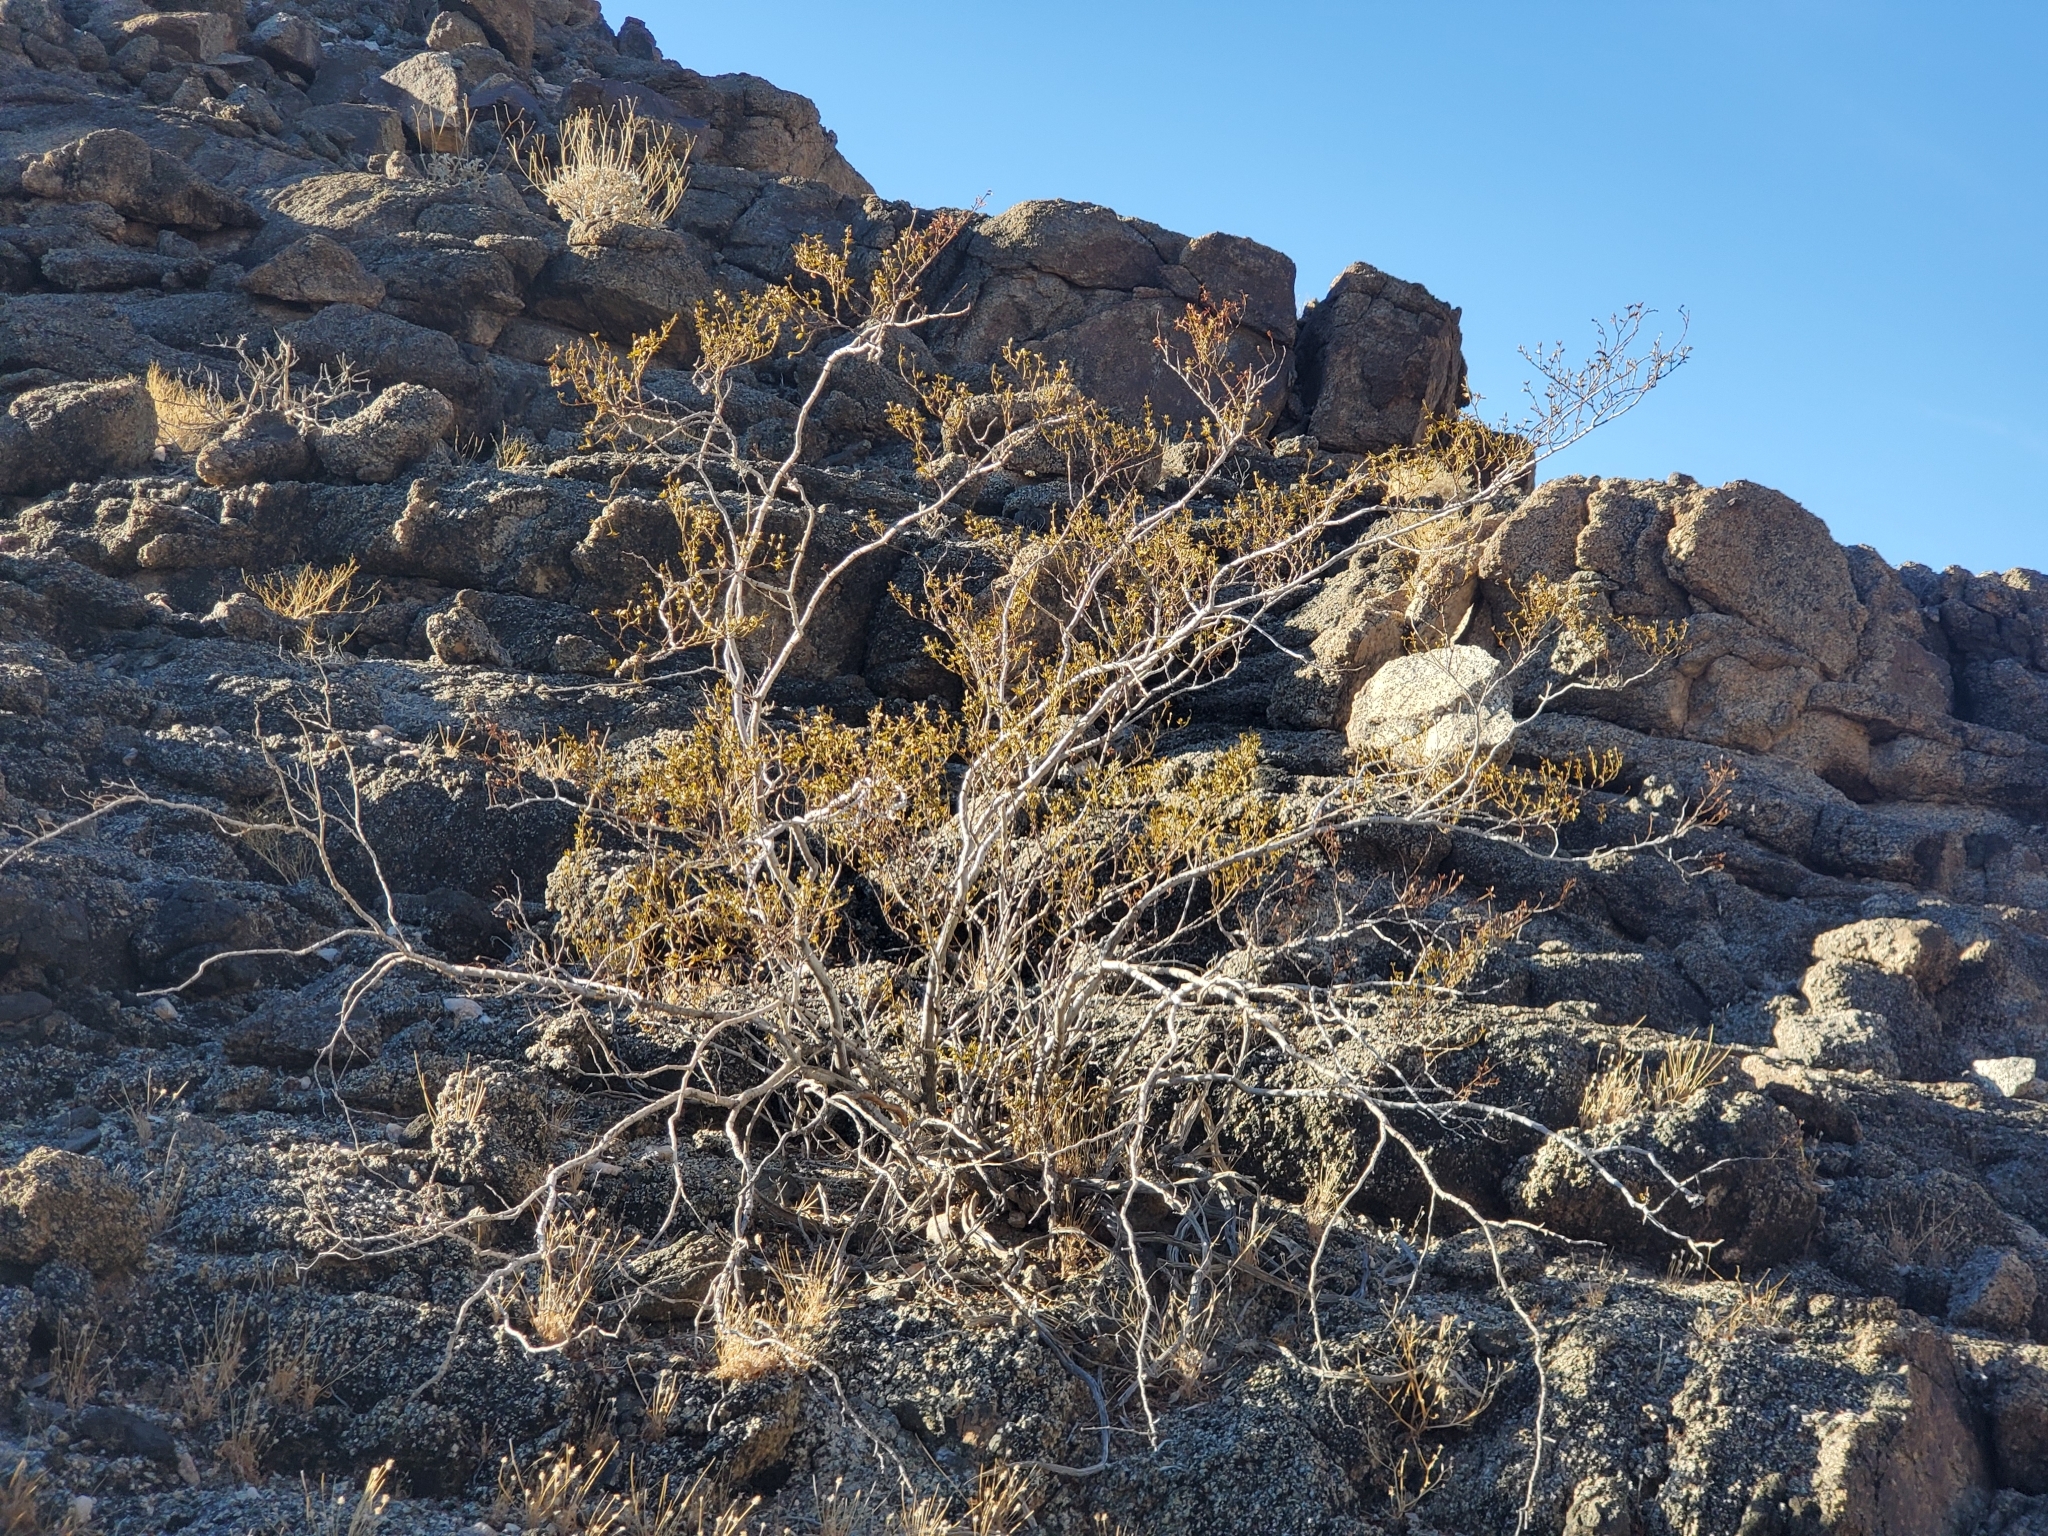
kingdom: Plantae
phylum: Tracheophyta
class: Magnoliopsida
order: Zygophyllales
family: Zygophyllaceae
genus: Larrea
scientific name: Larrea tridentata
